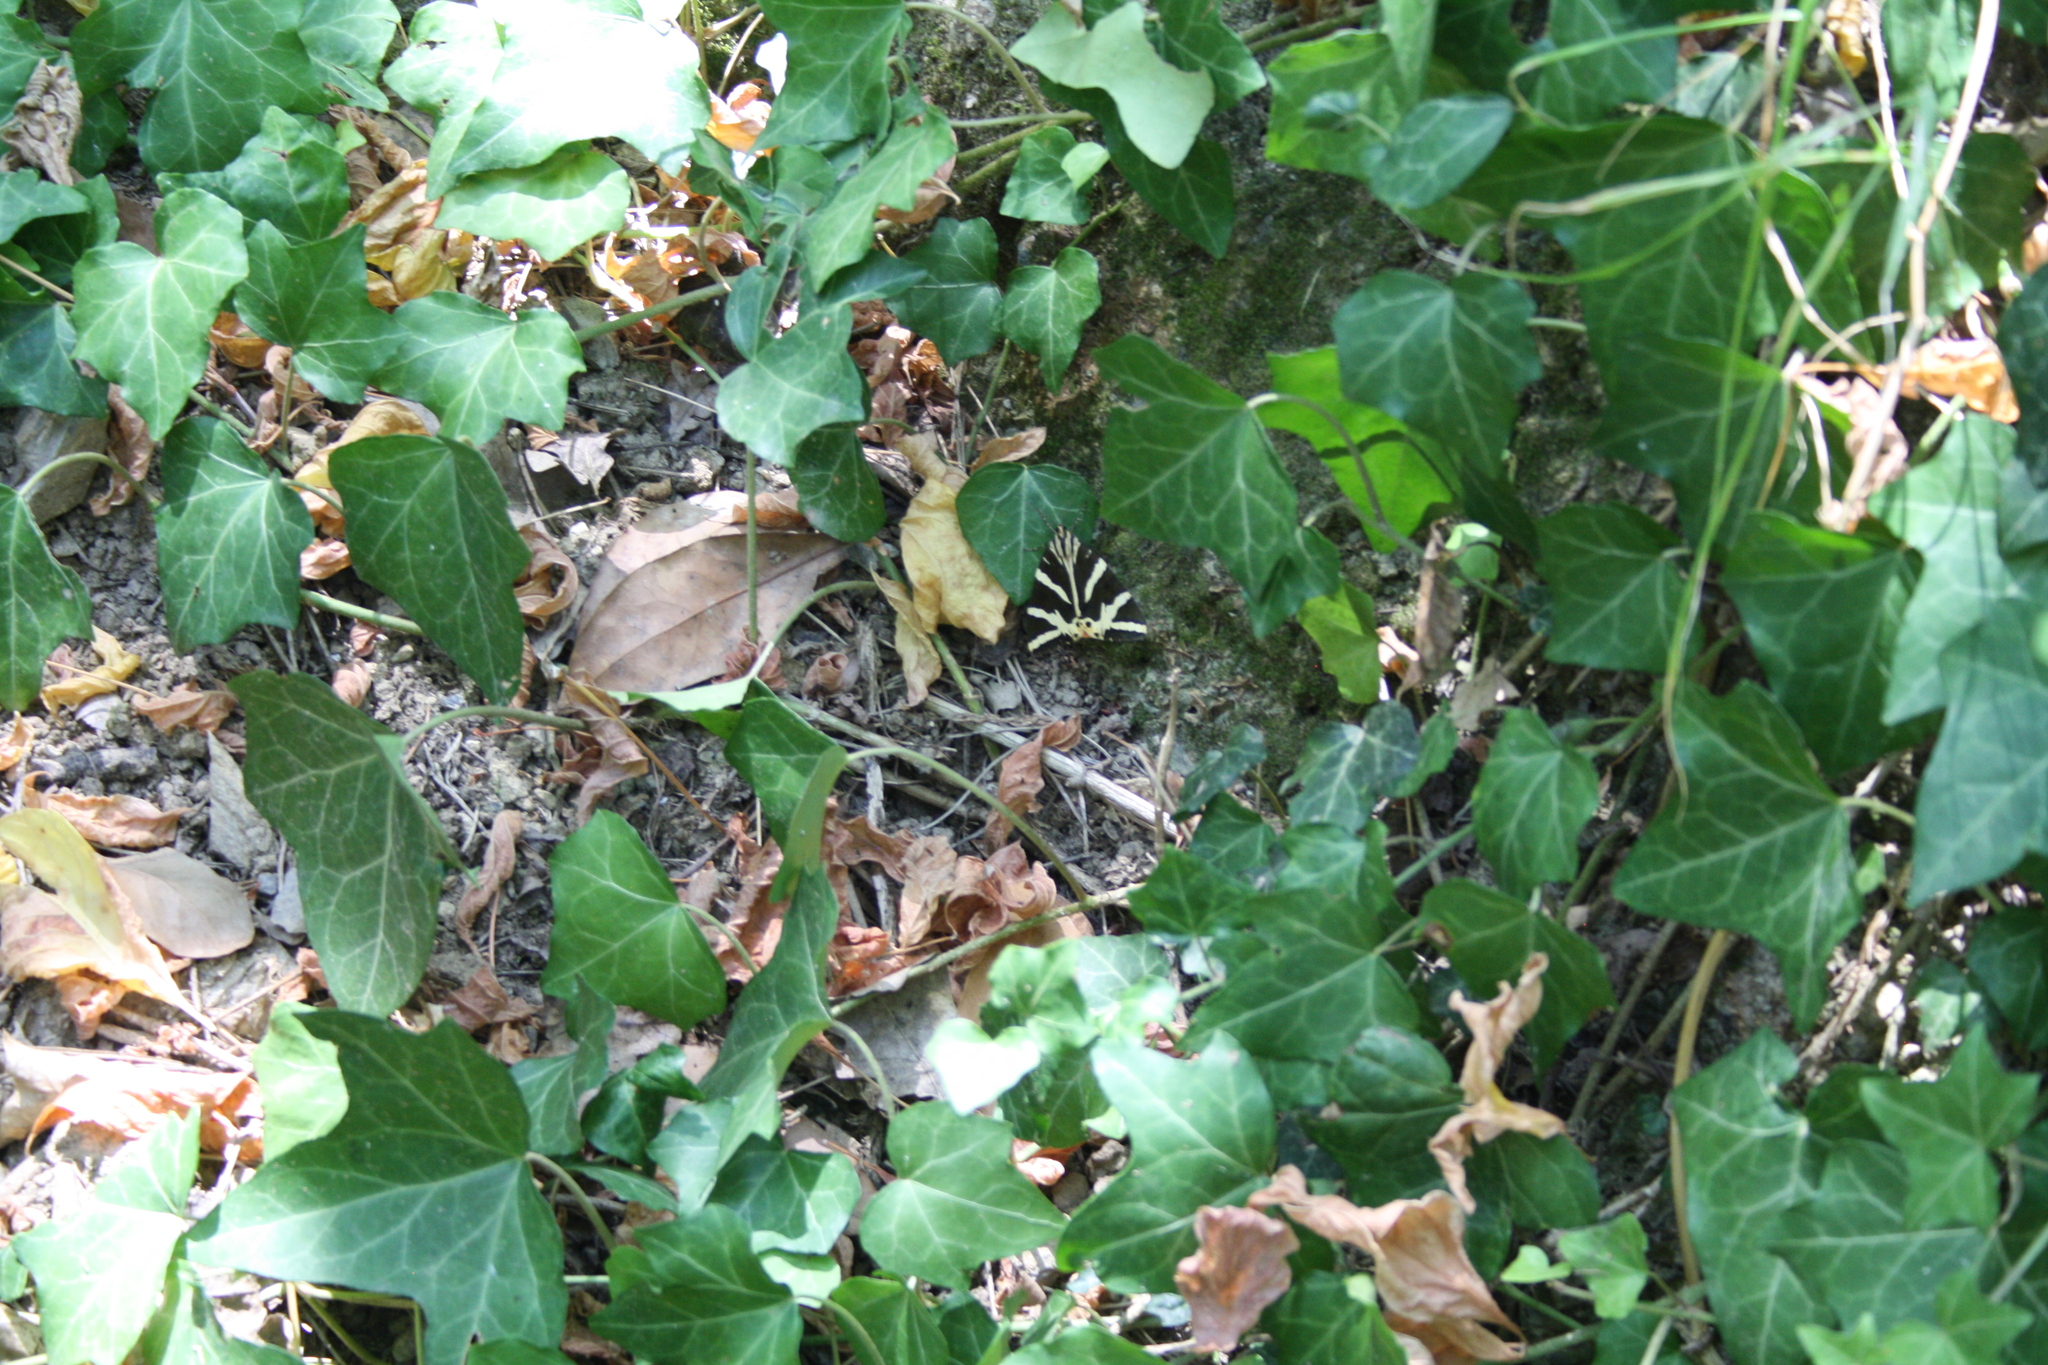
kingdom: Animalia
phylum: Arthropoda
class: Insecta
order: Lepidoptera
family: Erebidae
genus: Euplagia
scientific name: Euplagia quadripunctaria
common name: Jersey tiger
